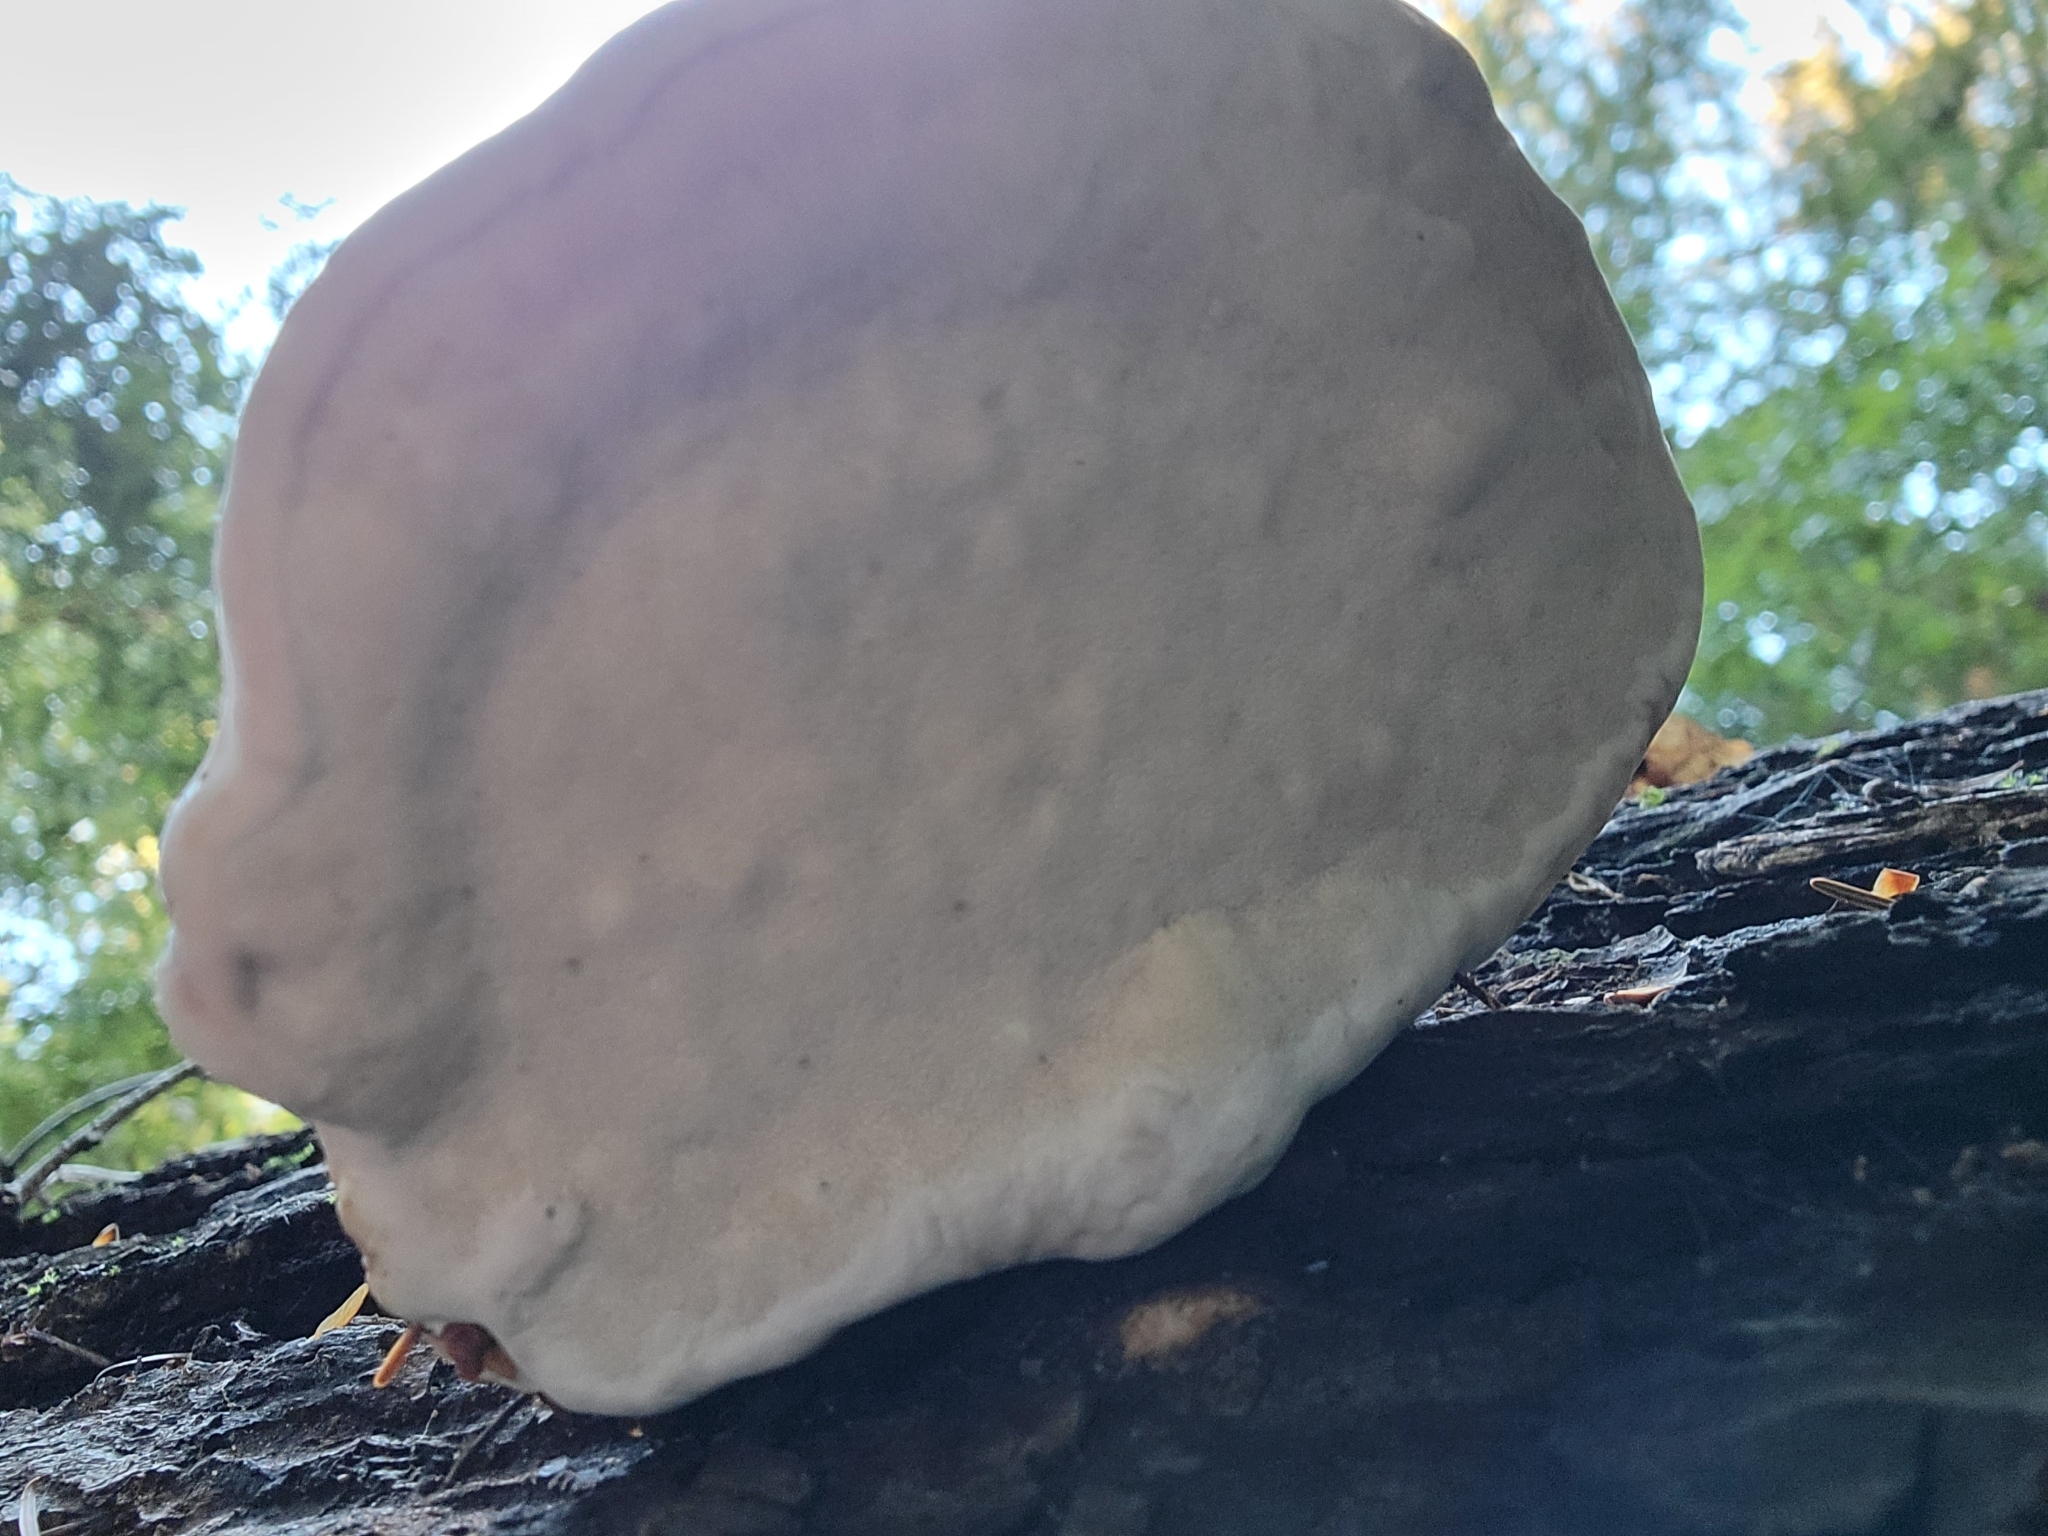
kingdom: Fungi
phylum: Basidiomycota
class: Agaricomycetes
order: Polyporales
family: Fomitopsidaceae
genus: Fomitopsis
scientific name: Fomitopsis mounceae
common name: Northern red belt
